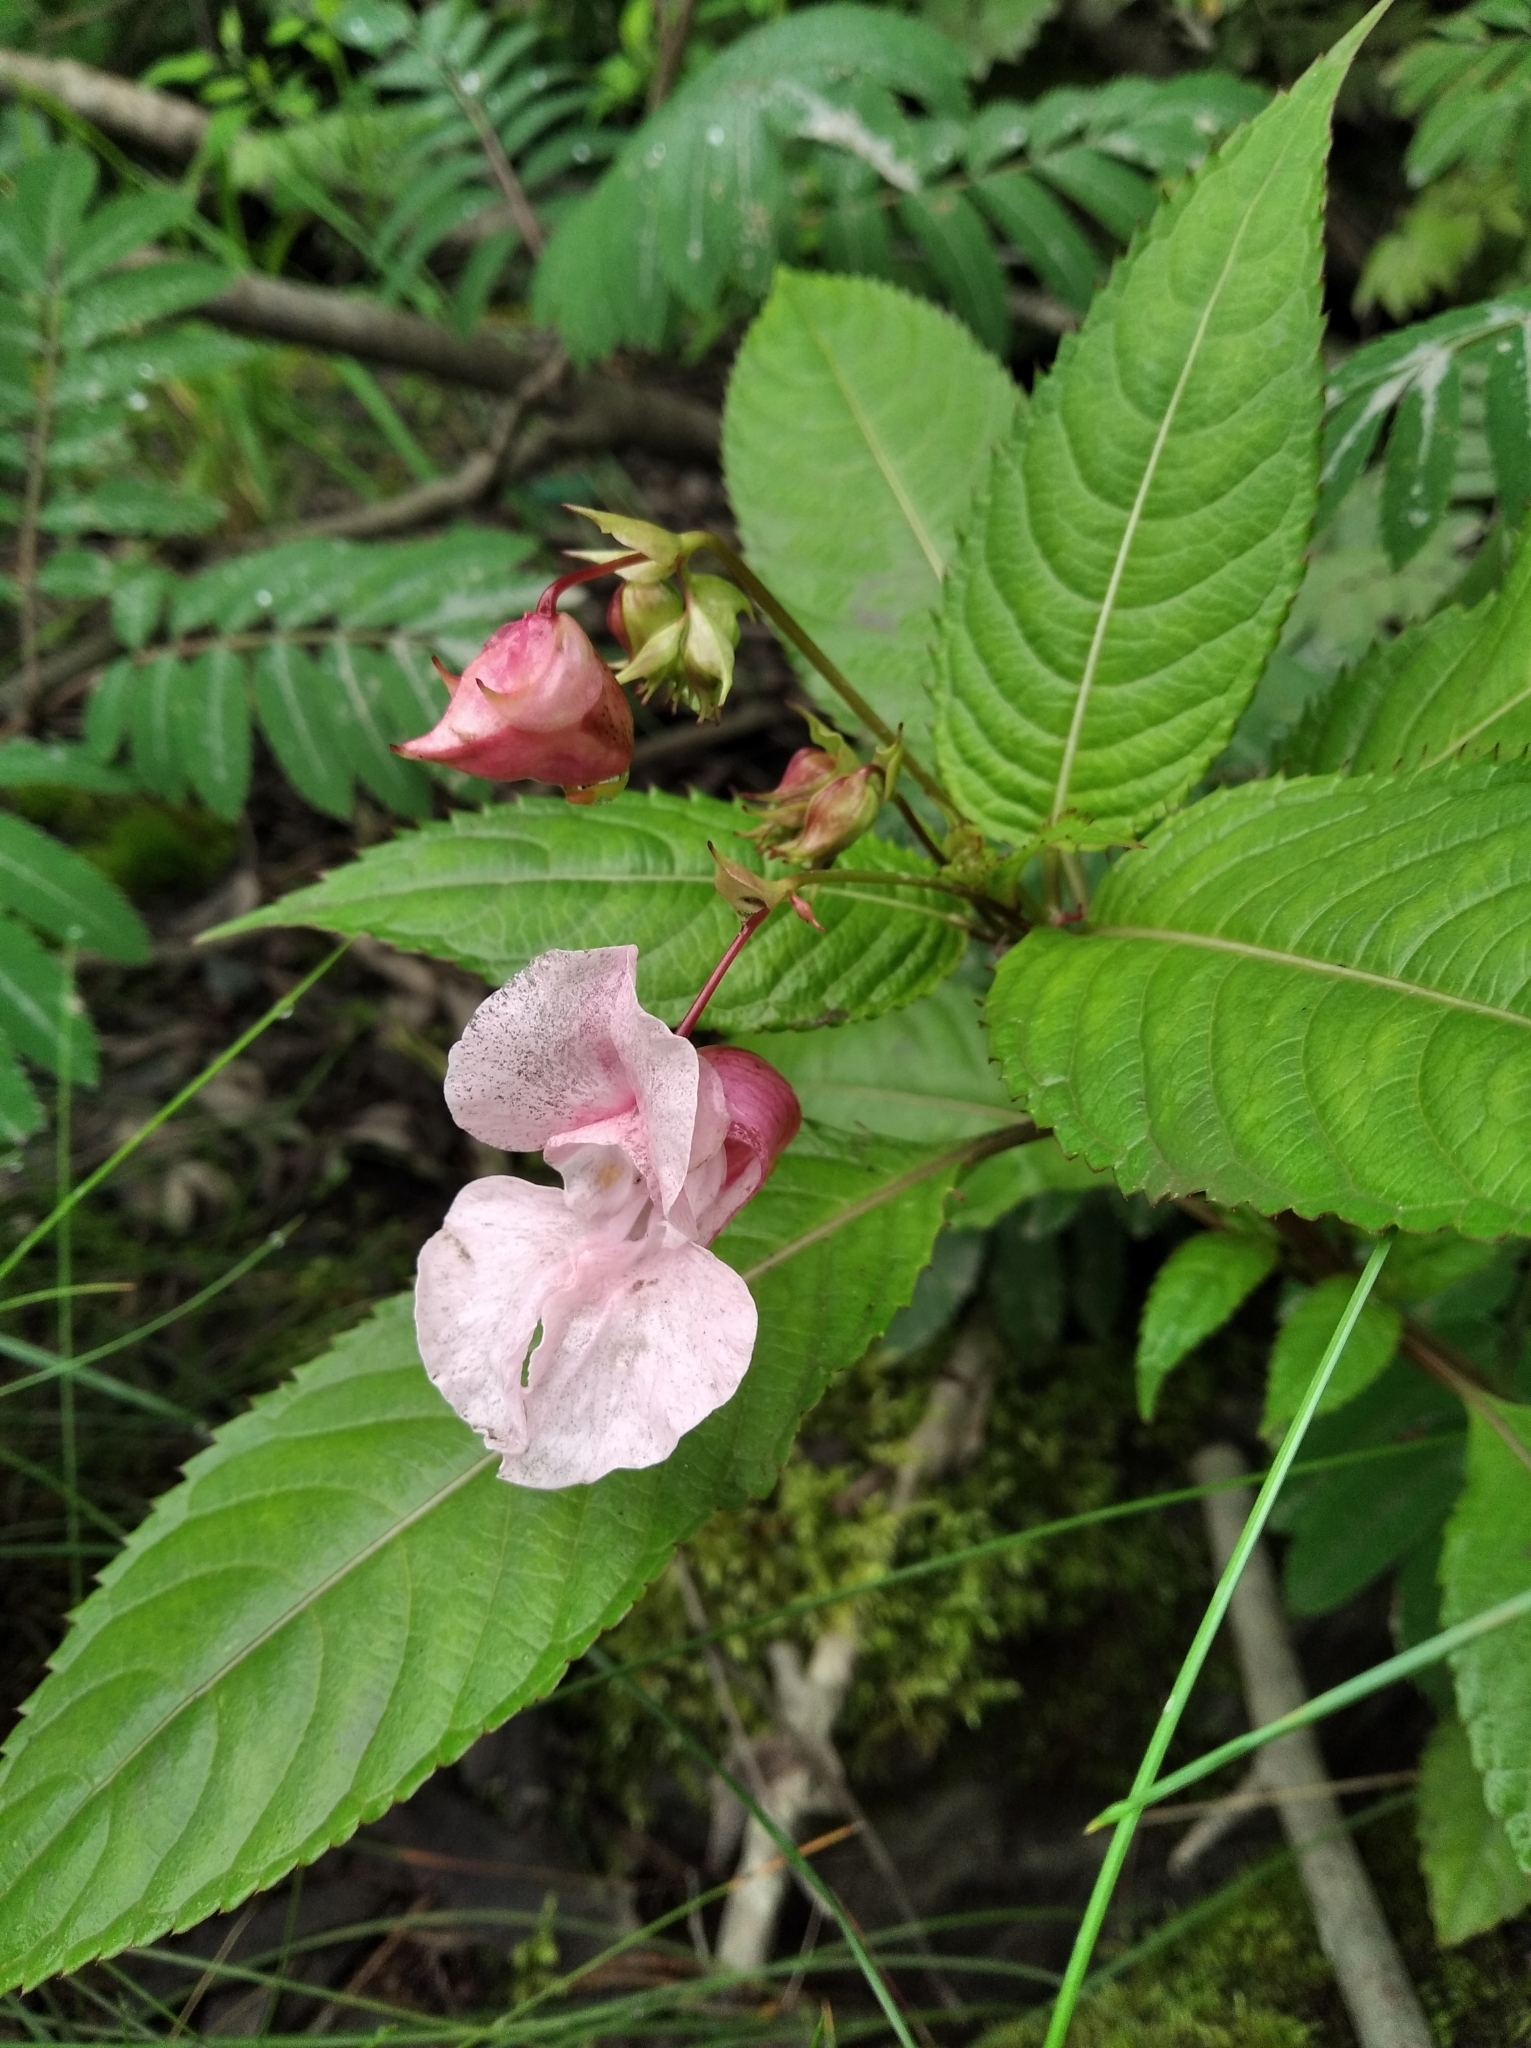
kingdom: Plantae
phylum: Tracheophyta
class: Magnoliopsida
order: Ericales
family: Balsaminaceae
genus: Impatiens
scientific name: Impatiens glandulifera
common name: Himalayan balsam
